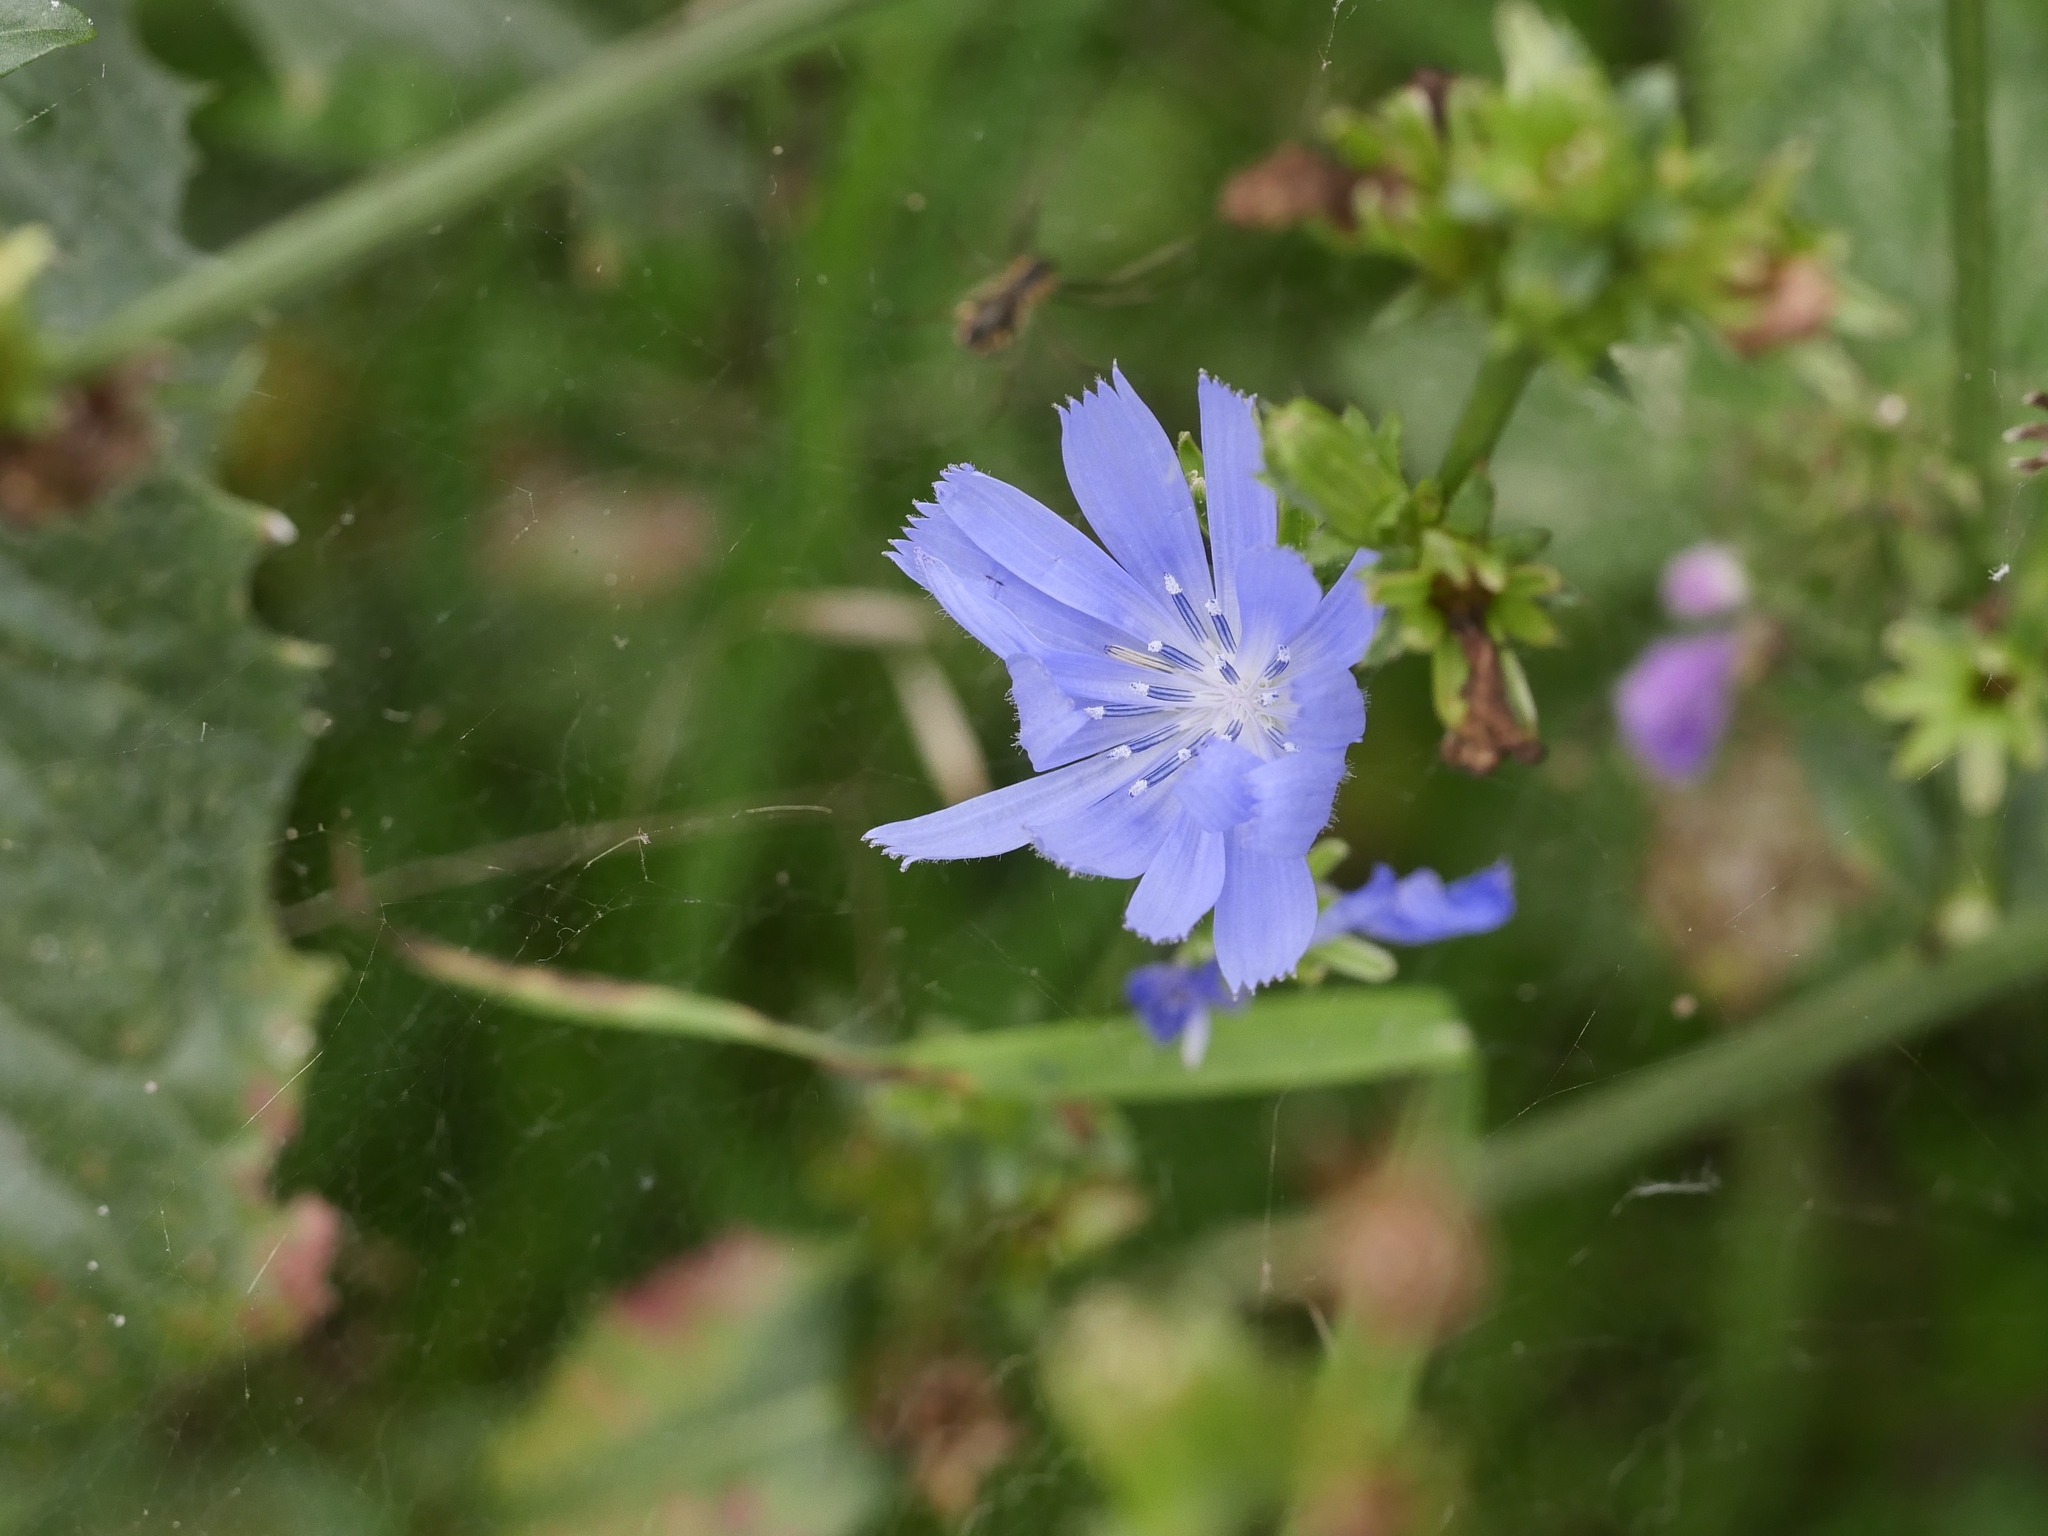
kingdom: Plantae
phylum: Tracheophyta
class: Magnoliopsida
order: Asterales
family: Asteraceae
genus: Cichorium
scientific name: Cichorium intybus
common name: Chicory
